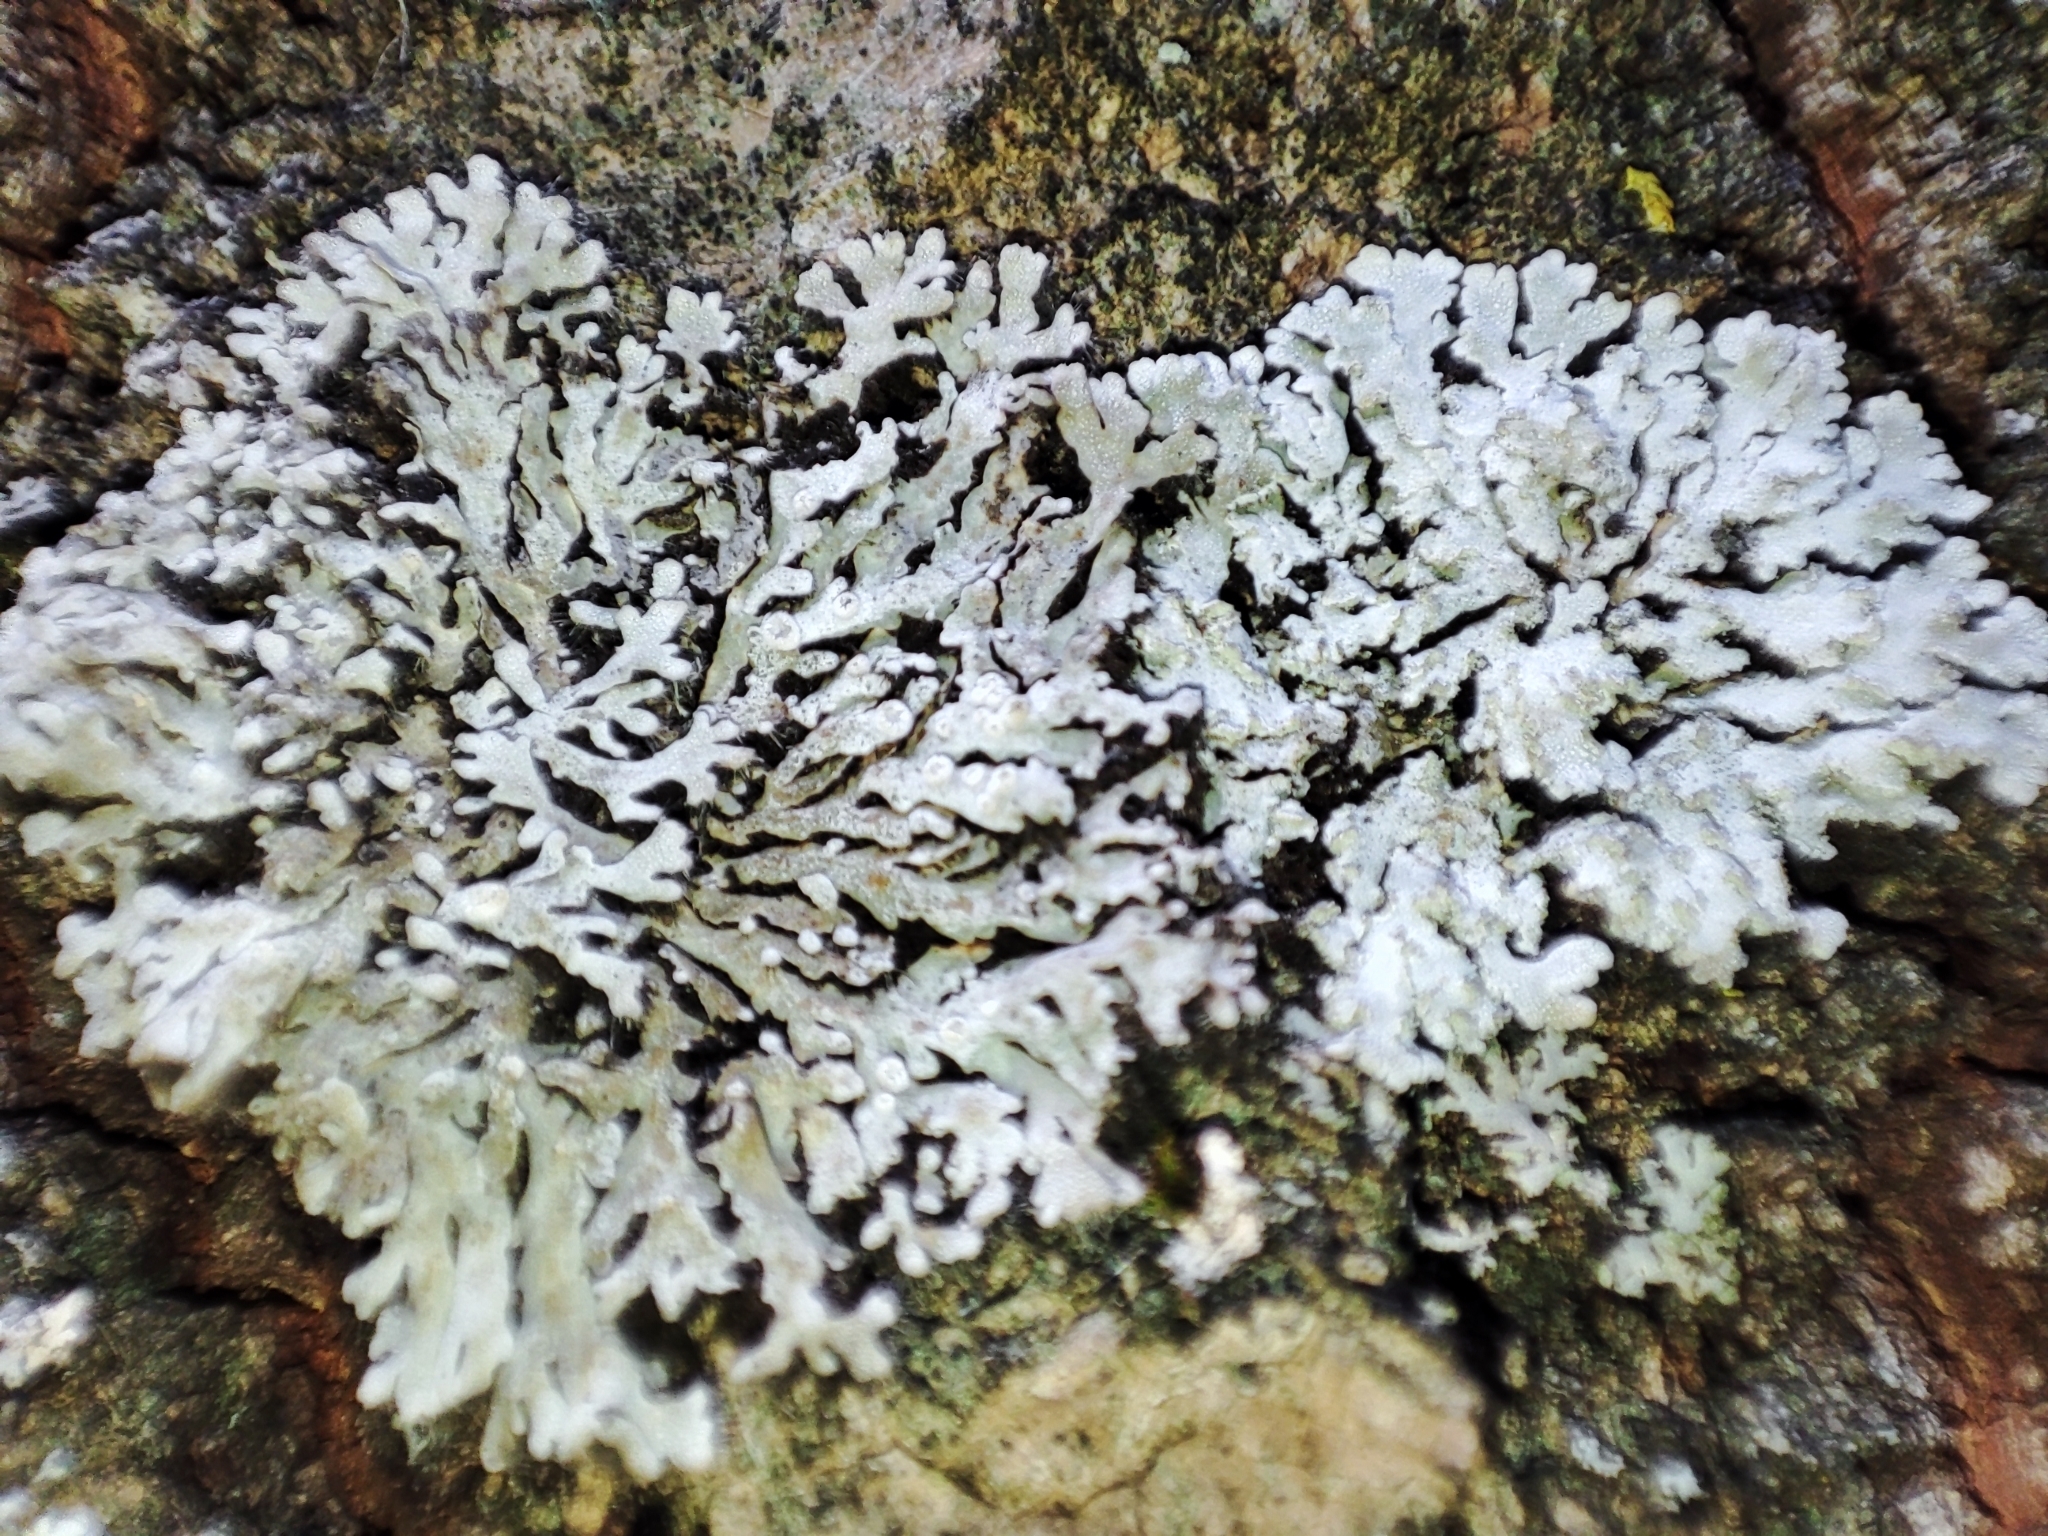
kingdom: Fungi
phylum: Ascomycota
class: Lecanoromycetes
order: Caliciales
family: Physciaceae
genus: Physconia
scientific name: Physconia distorta
